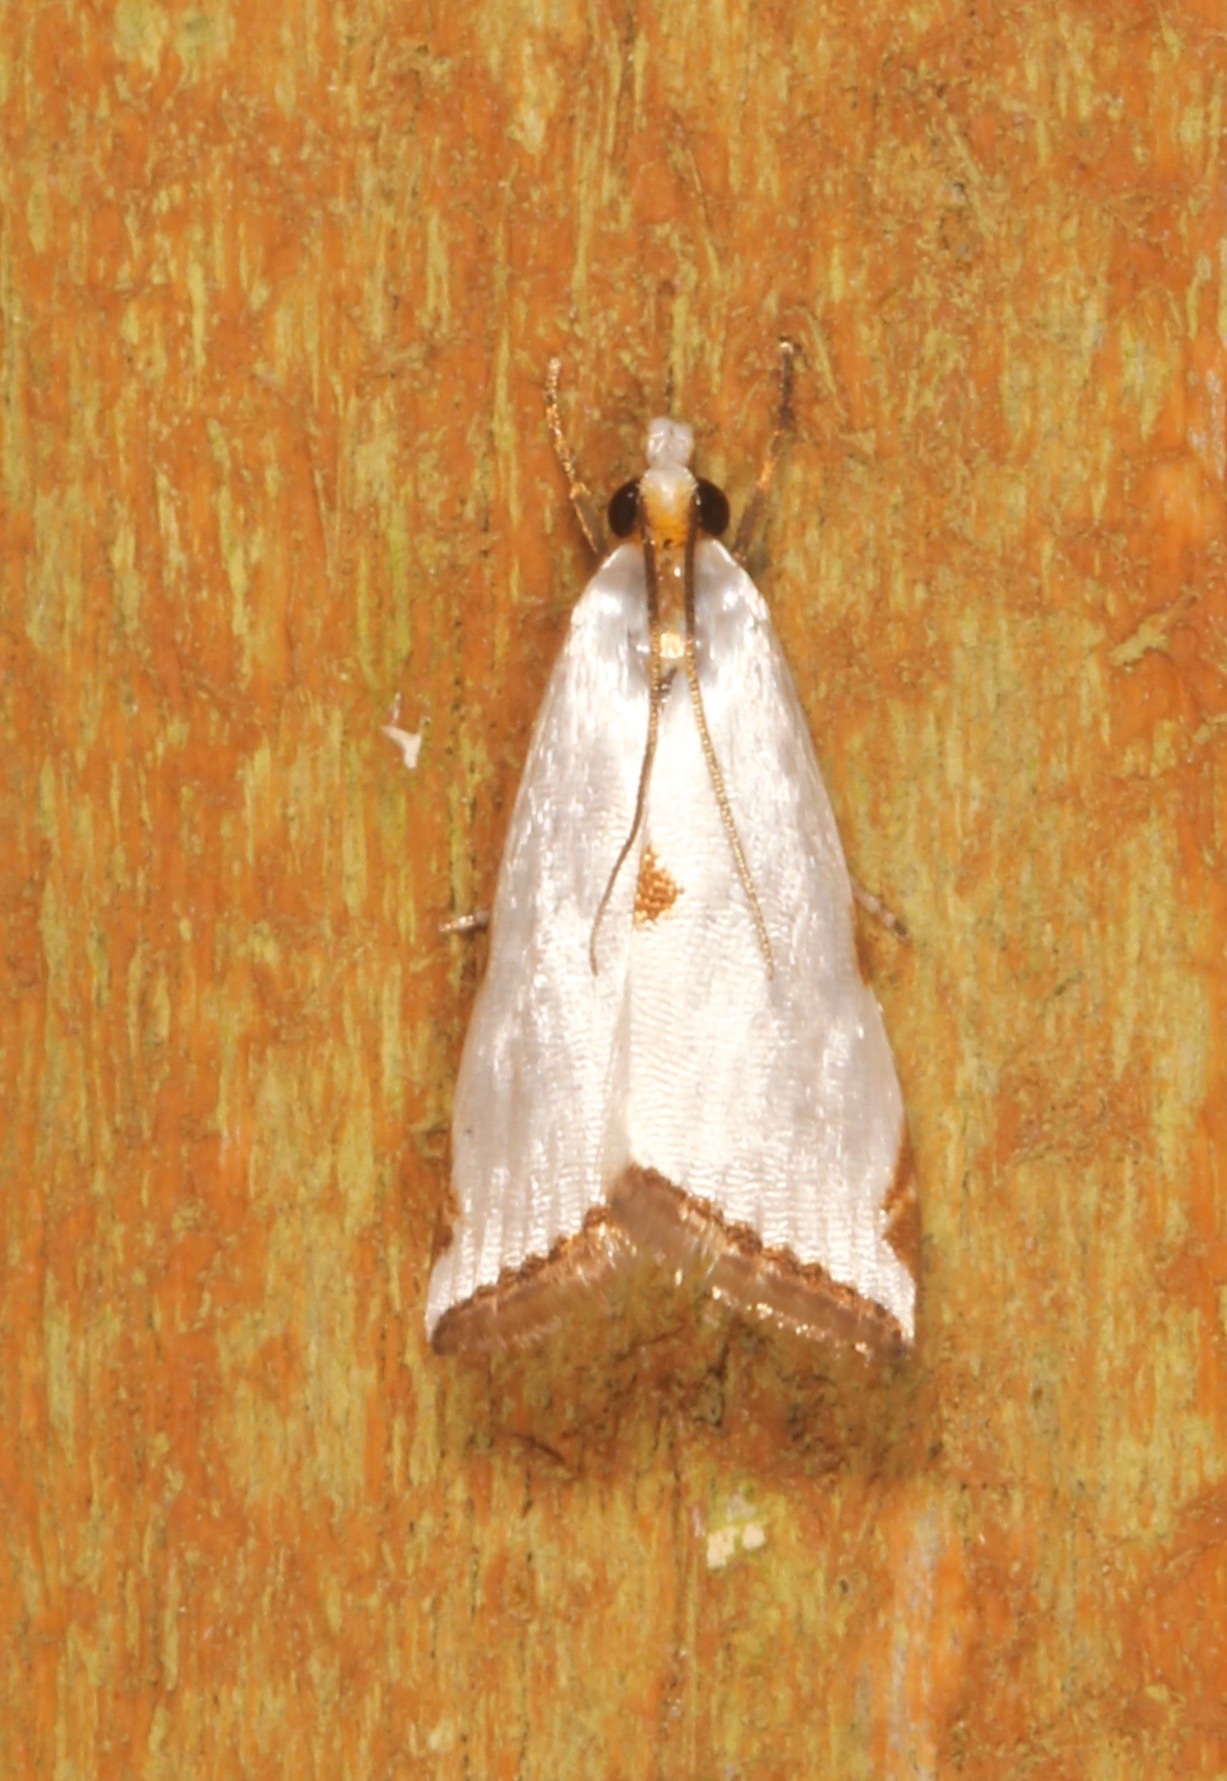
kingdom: Animalia
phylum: Arthropoda
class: Insecta
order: Lepidoptera
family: Crambidae
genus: Argyria
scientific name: Argyria lacteella
